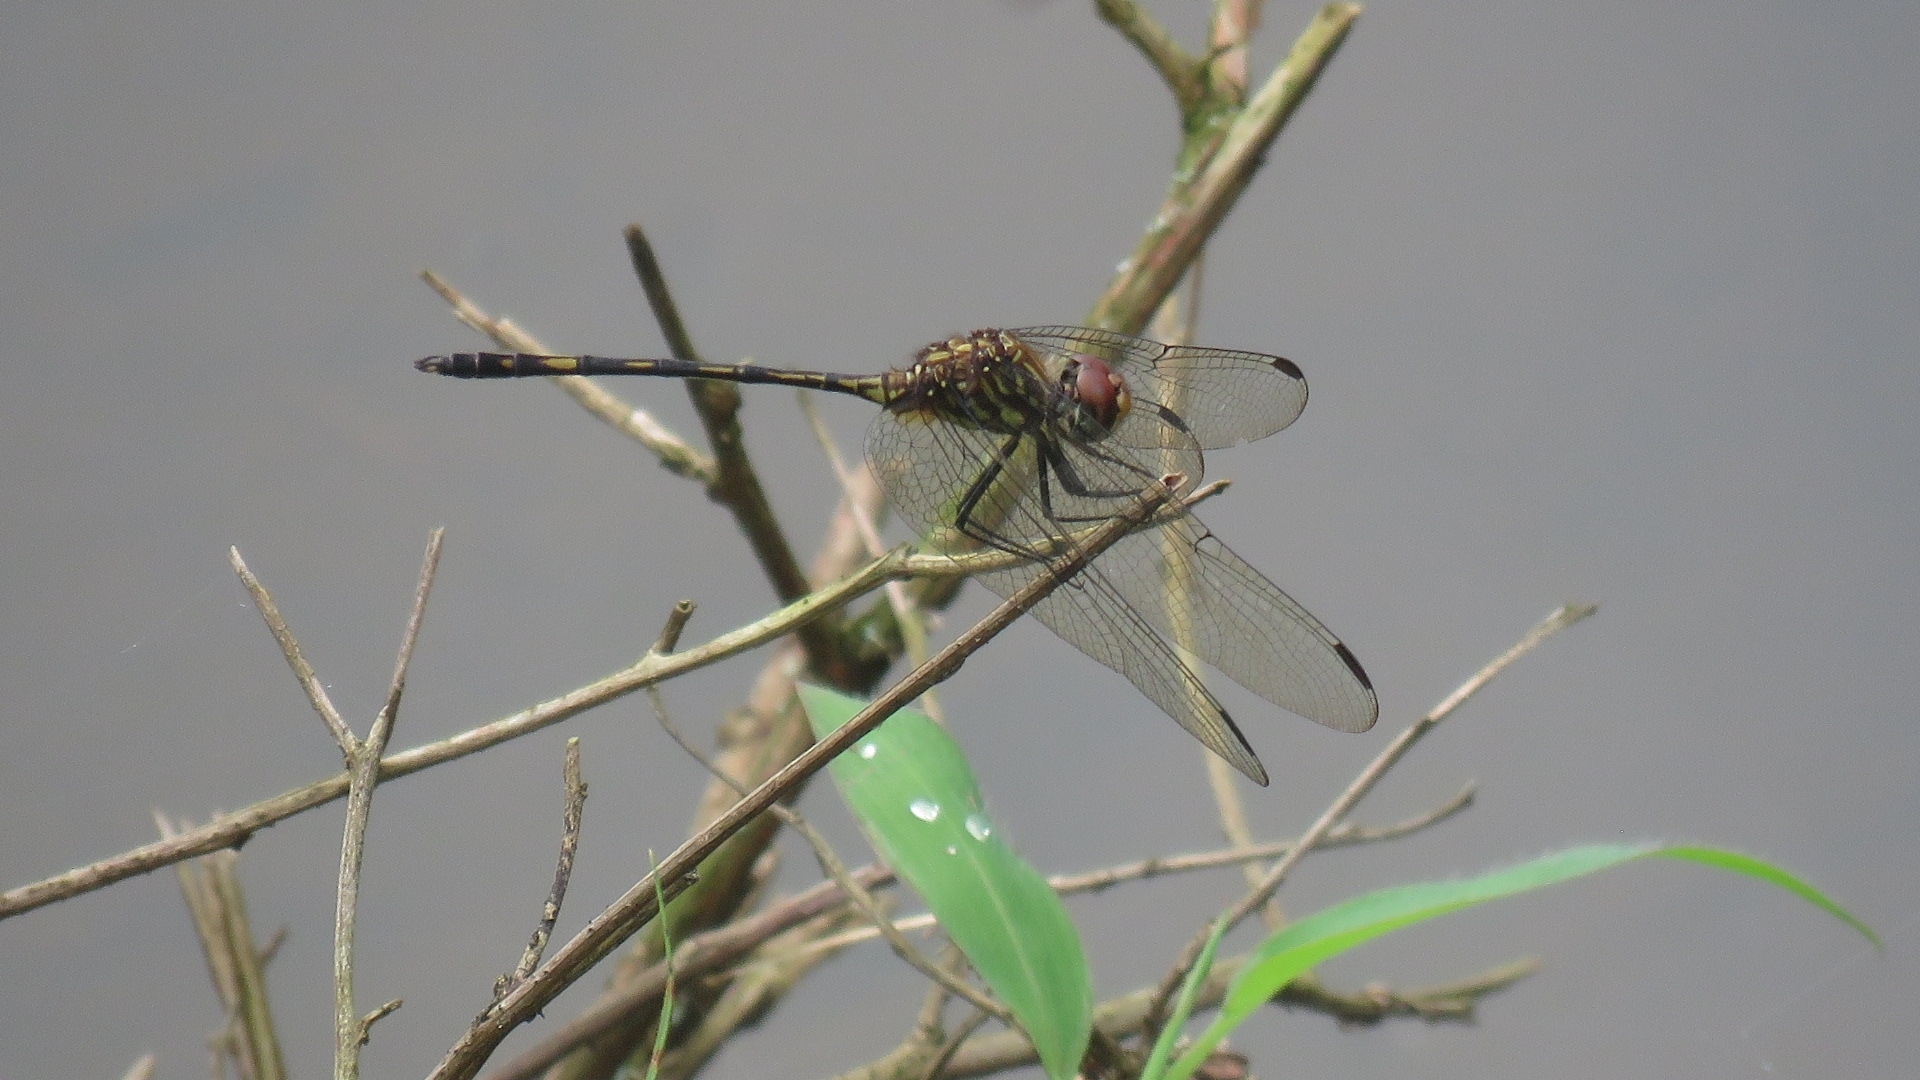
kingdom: Animalia
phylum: Arthropoda
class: Insecta
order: Odonata
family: Libellulidae
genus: Dythemis
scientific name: Dythemis sterilis
